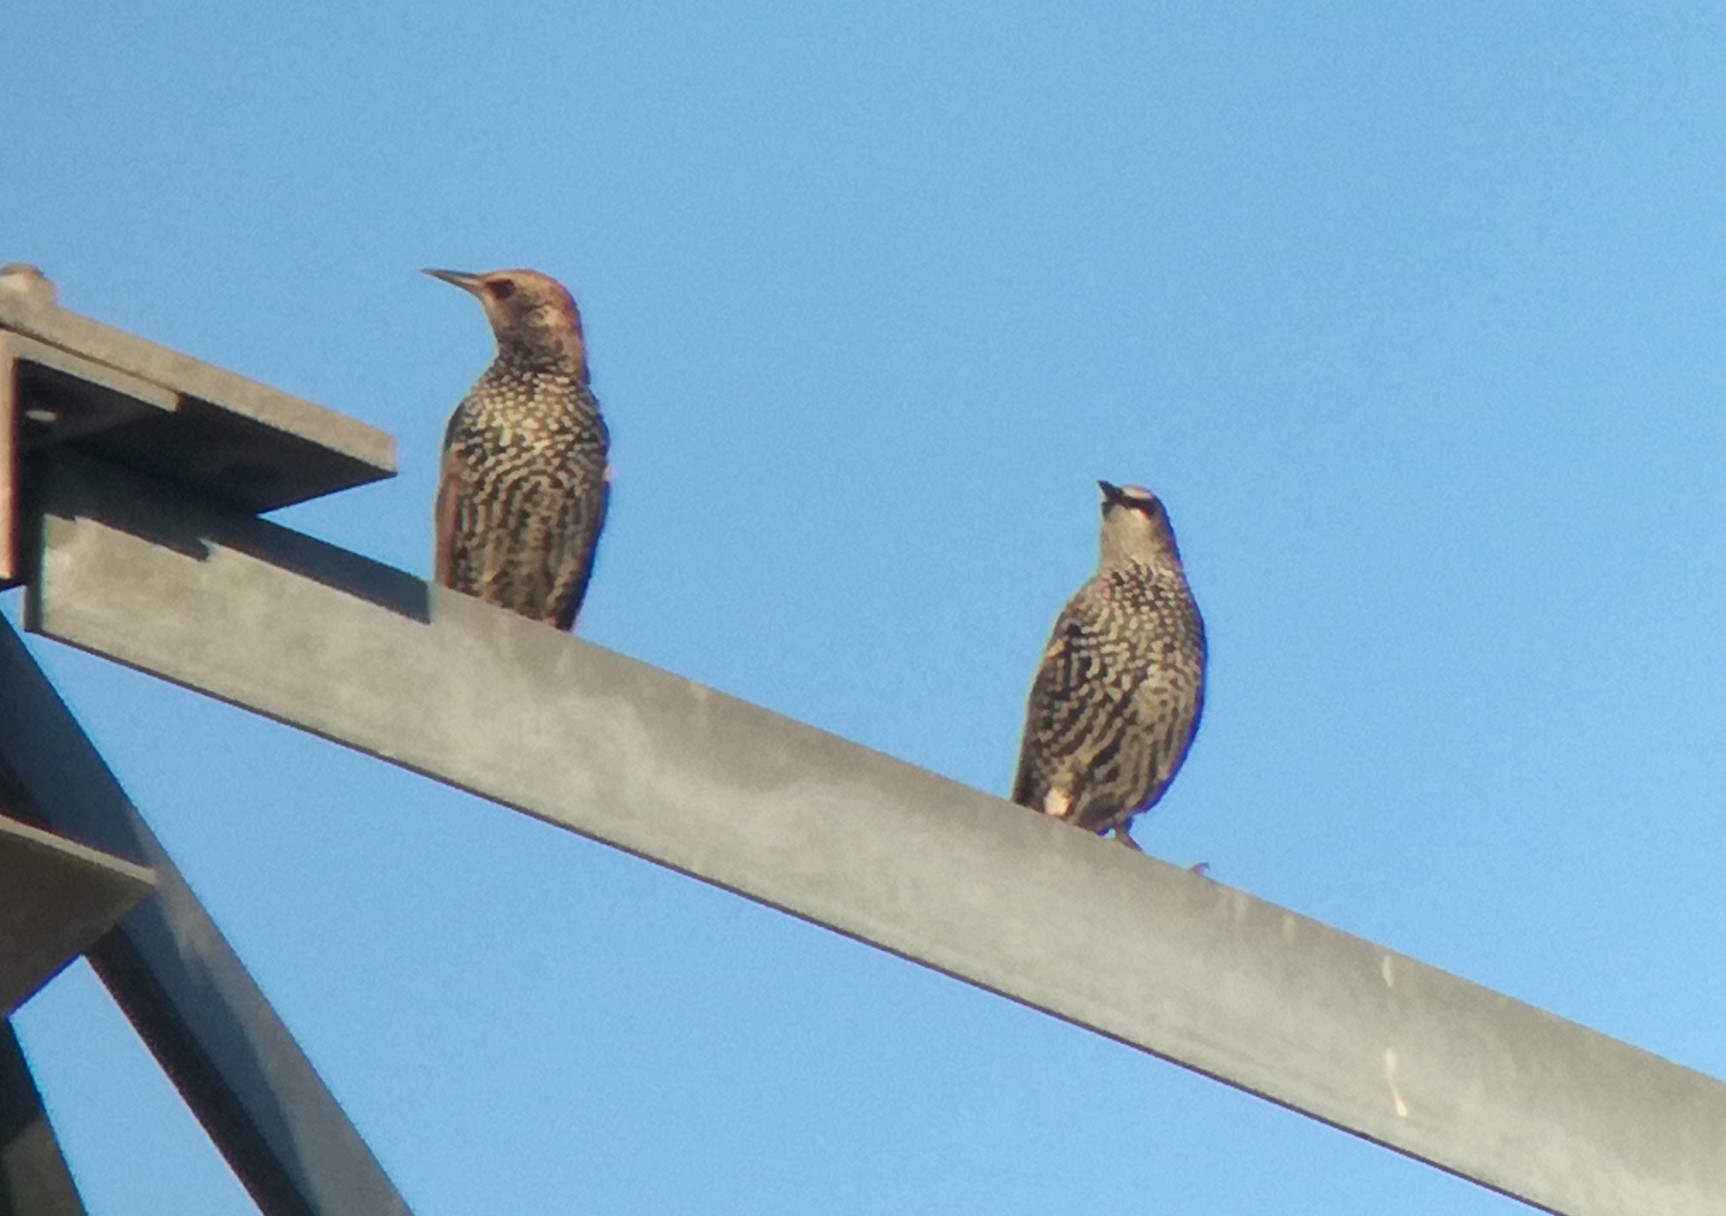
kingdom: Animalia
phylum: Chordata
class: Aves
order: Passeriformes
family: Sturnidae
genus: Sturnus
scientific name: Sturnus vulgaris
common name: Common starling
